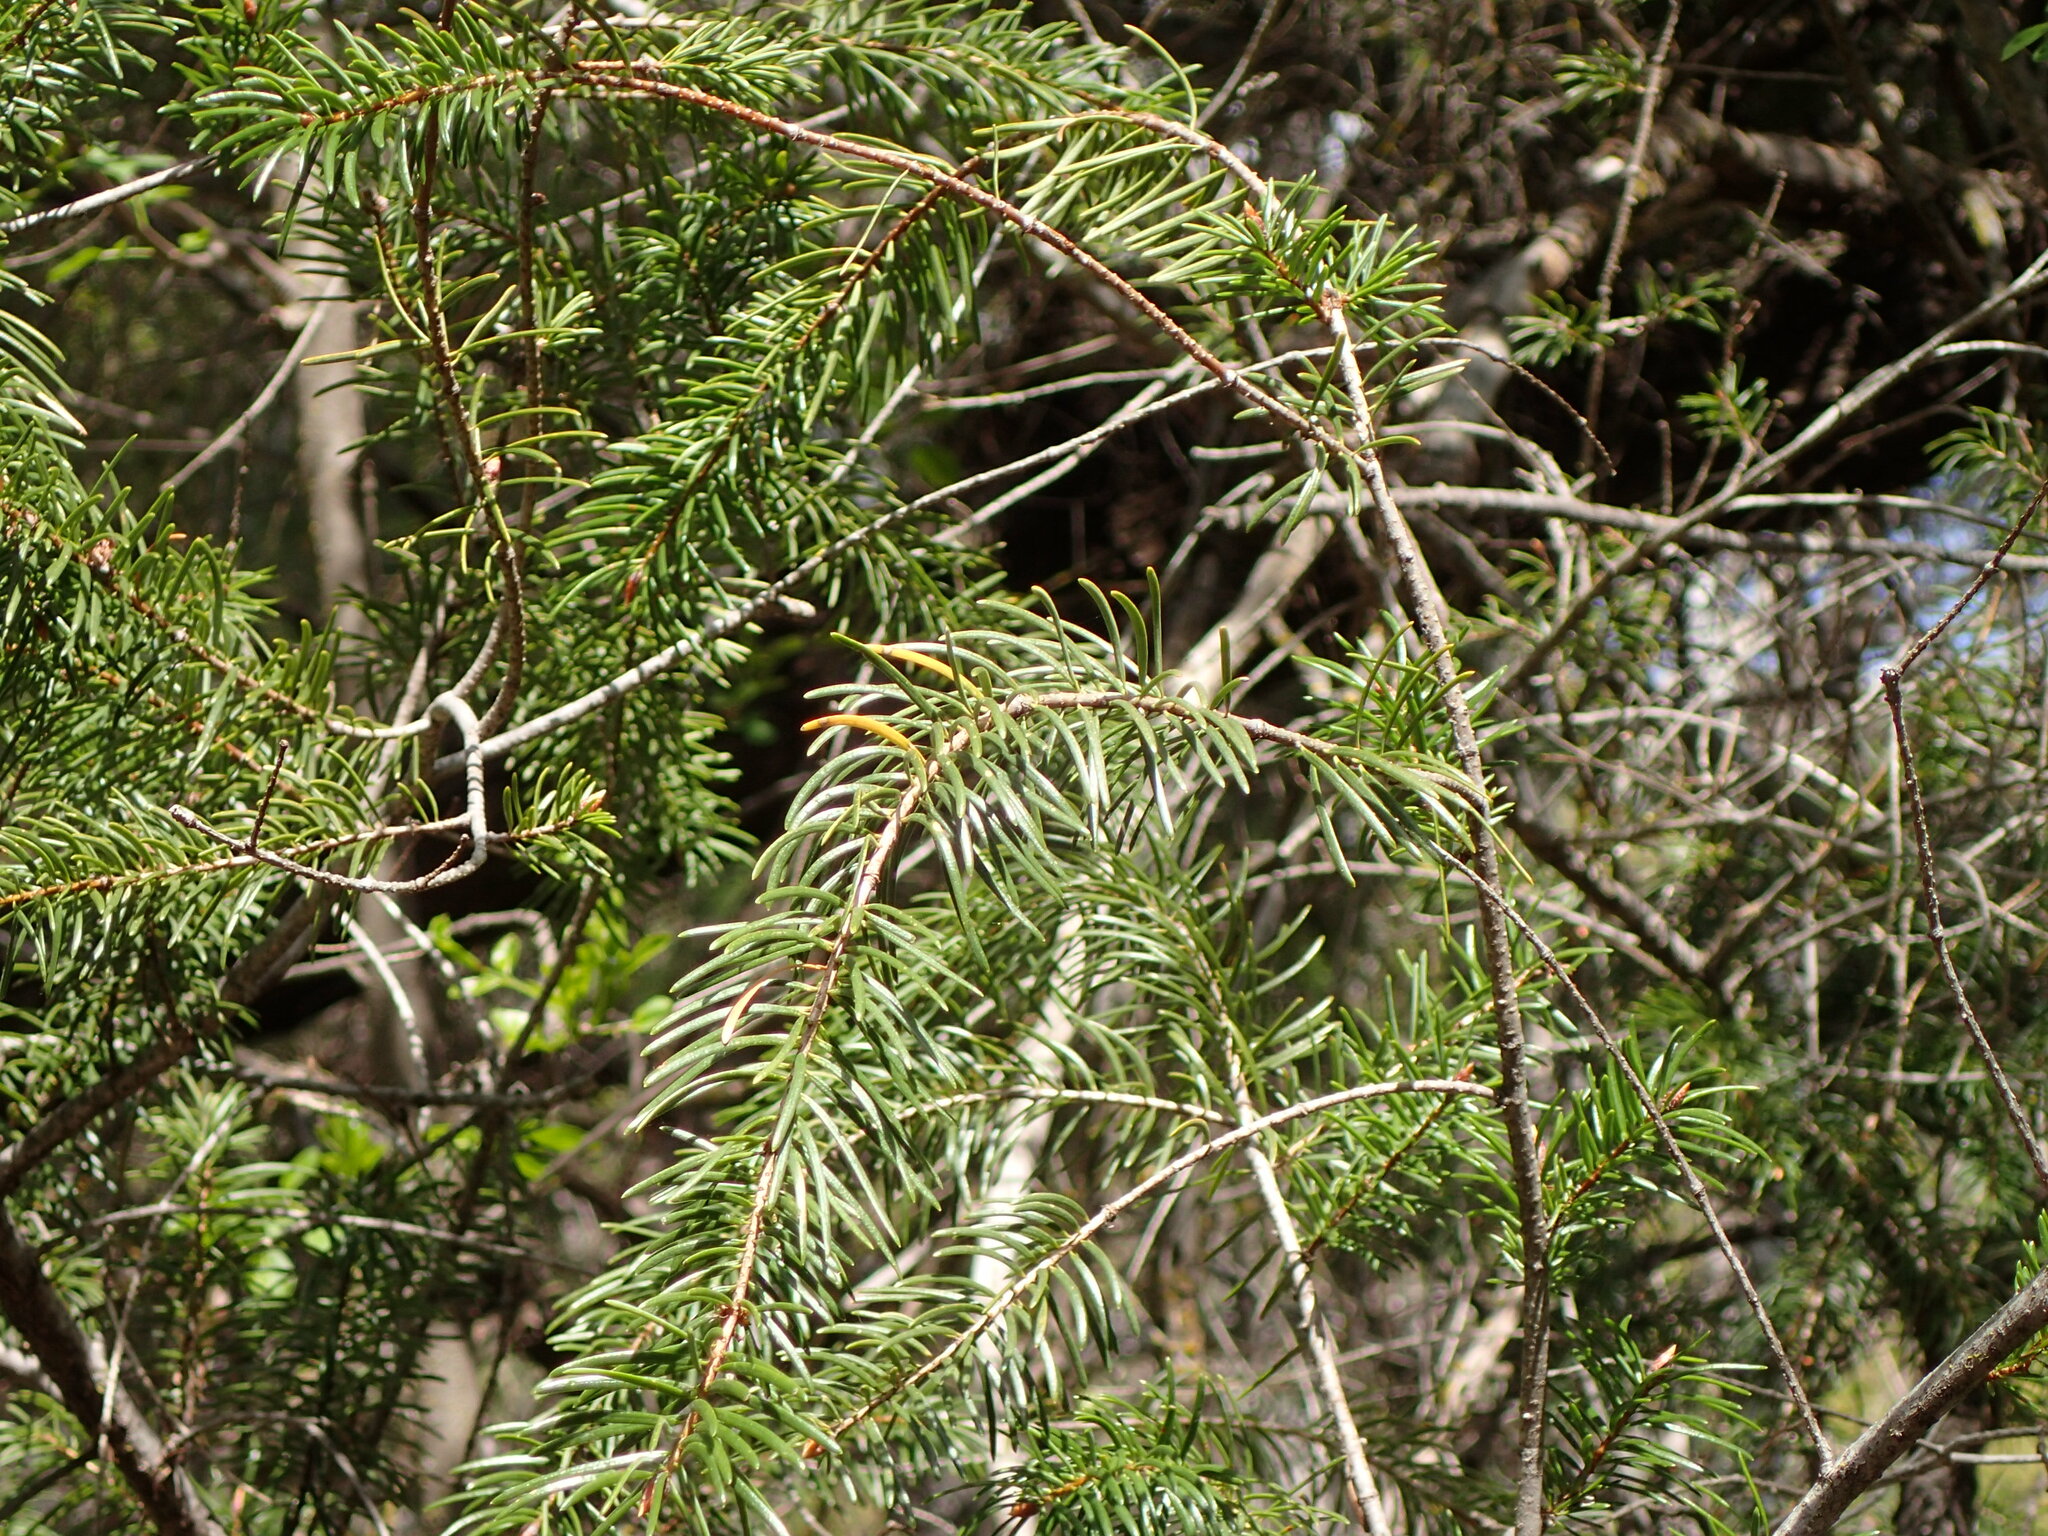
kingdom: Plantae
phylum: Tracheophyta
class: Pinopsida
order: Pinales
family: Pinaceae
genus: Pseudotsuga
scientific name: Pseudotsuga macrocarpa
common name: Big-cone douglas-fir
